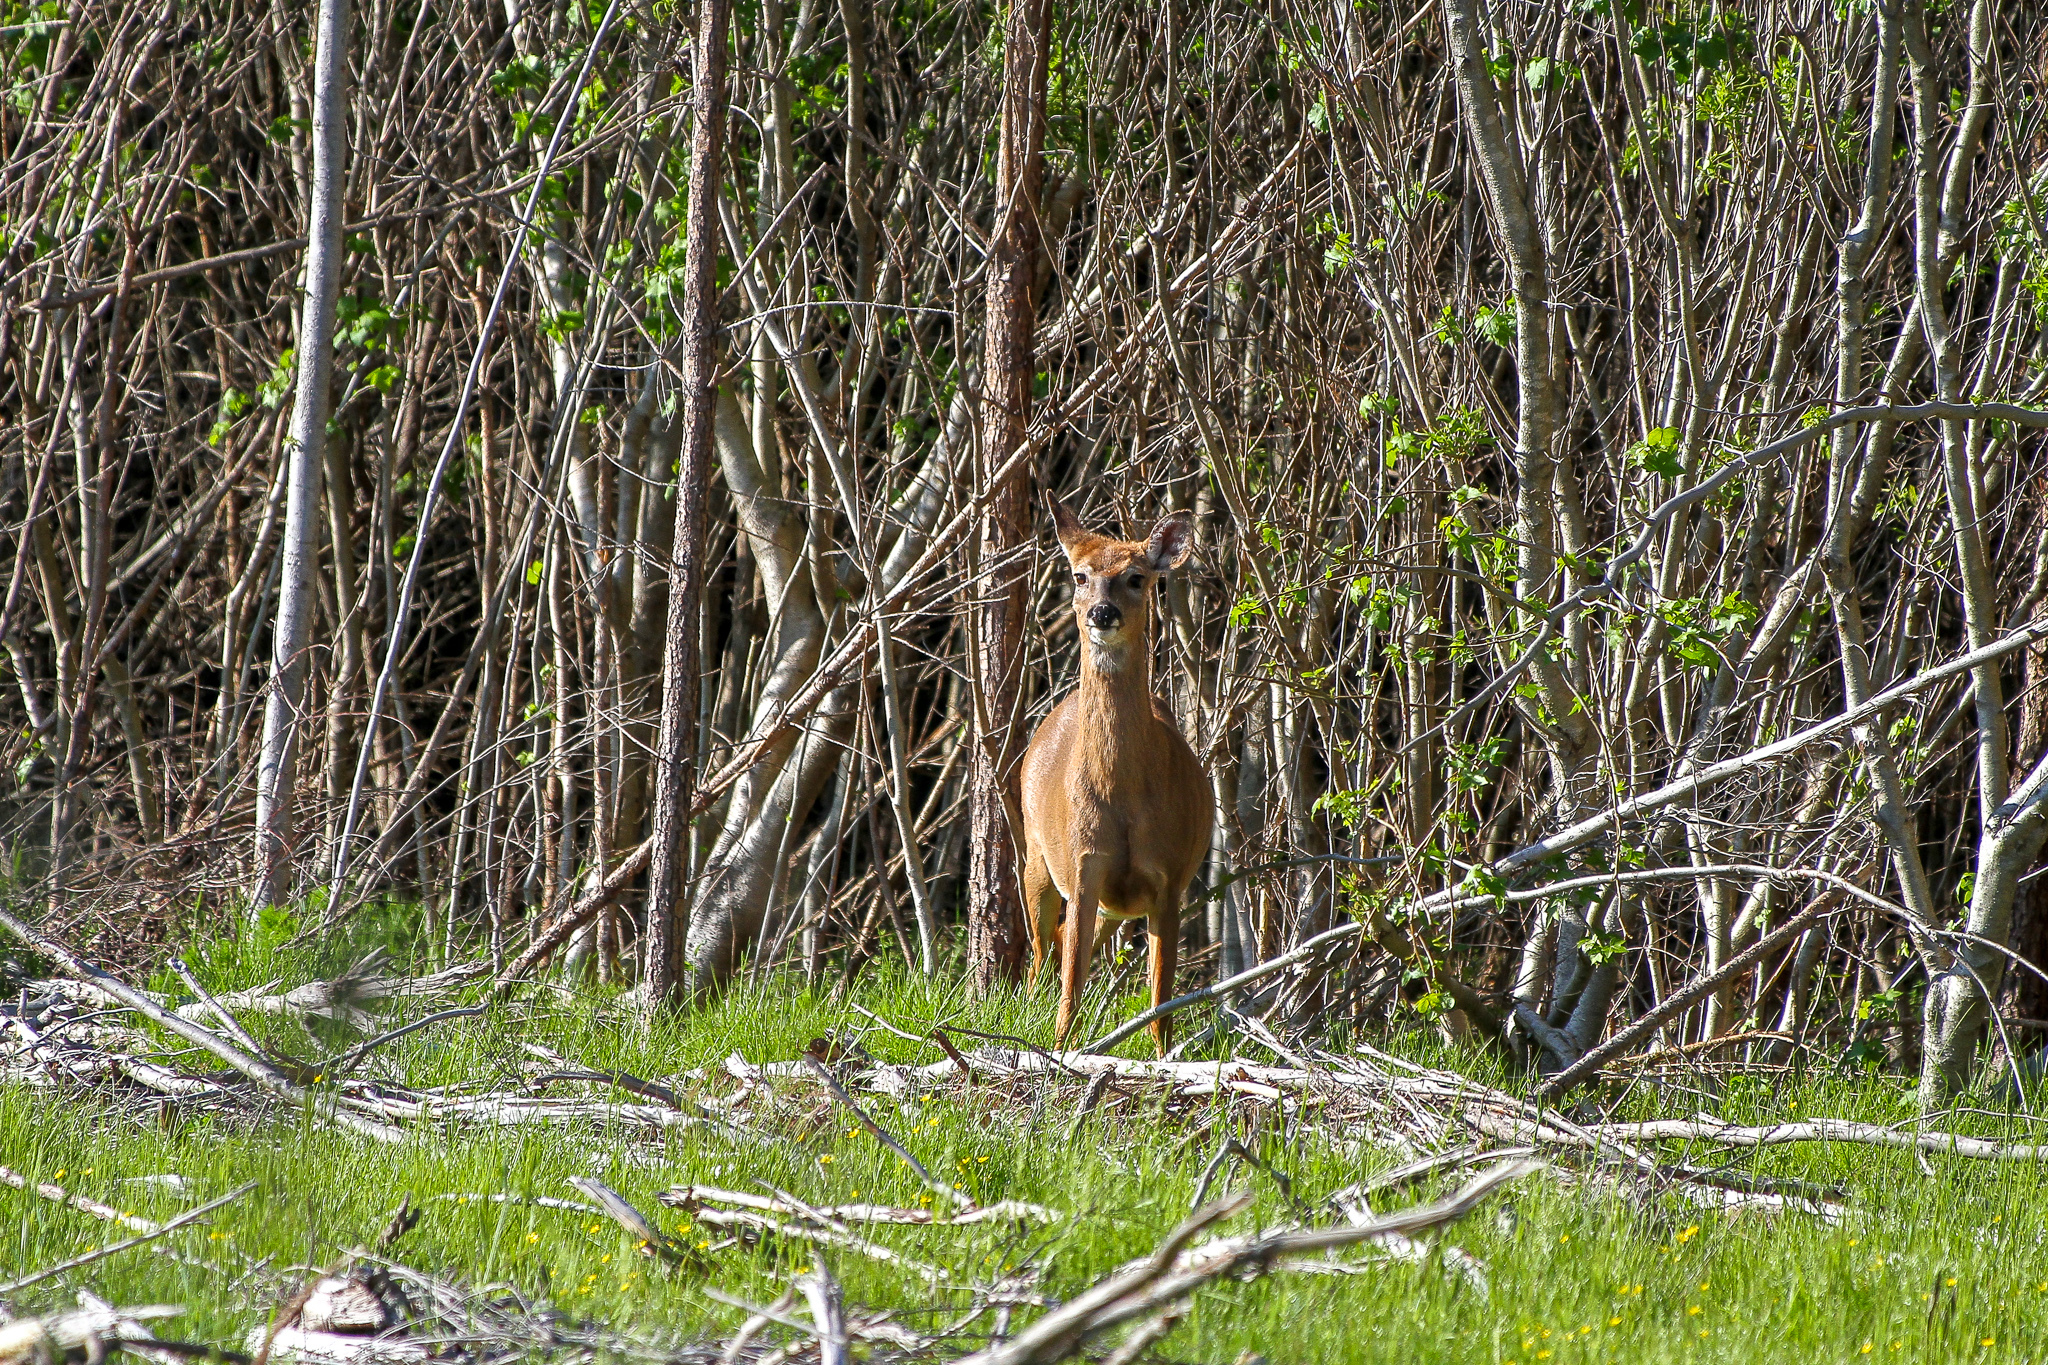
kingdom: Animalia
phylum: Chordata
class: Mammalia
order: Artiodactyla
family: Cervidae
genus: Odocoileus
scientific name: Odocoileus virginianus
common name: White-tailed deer
